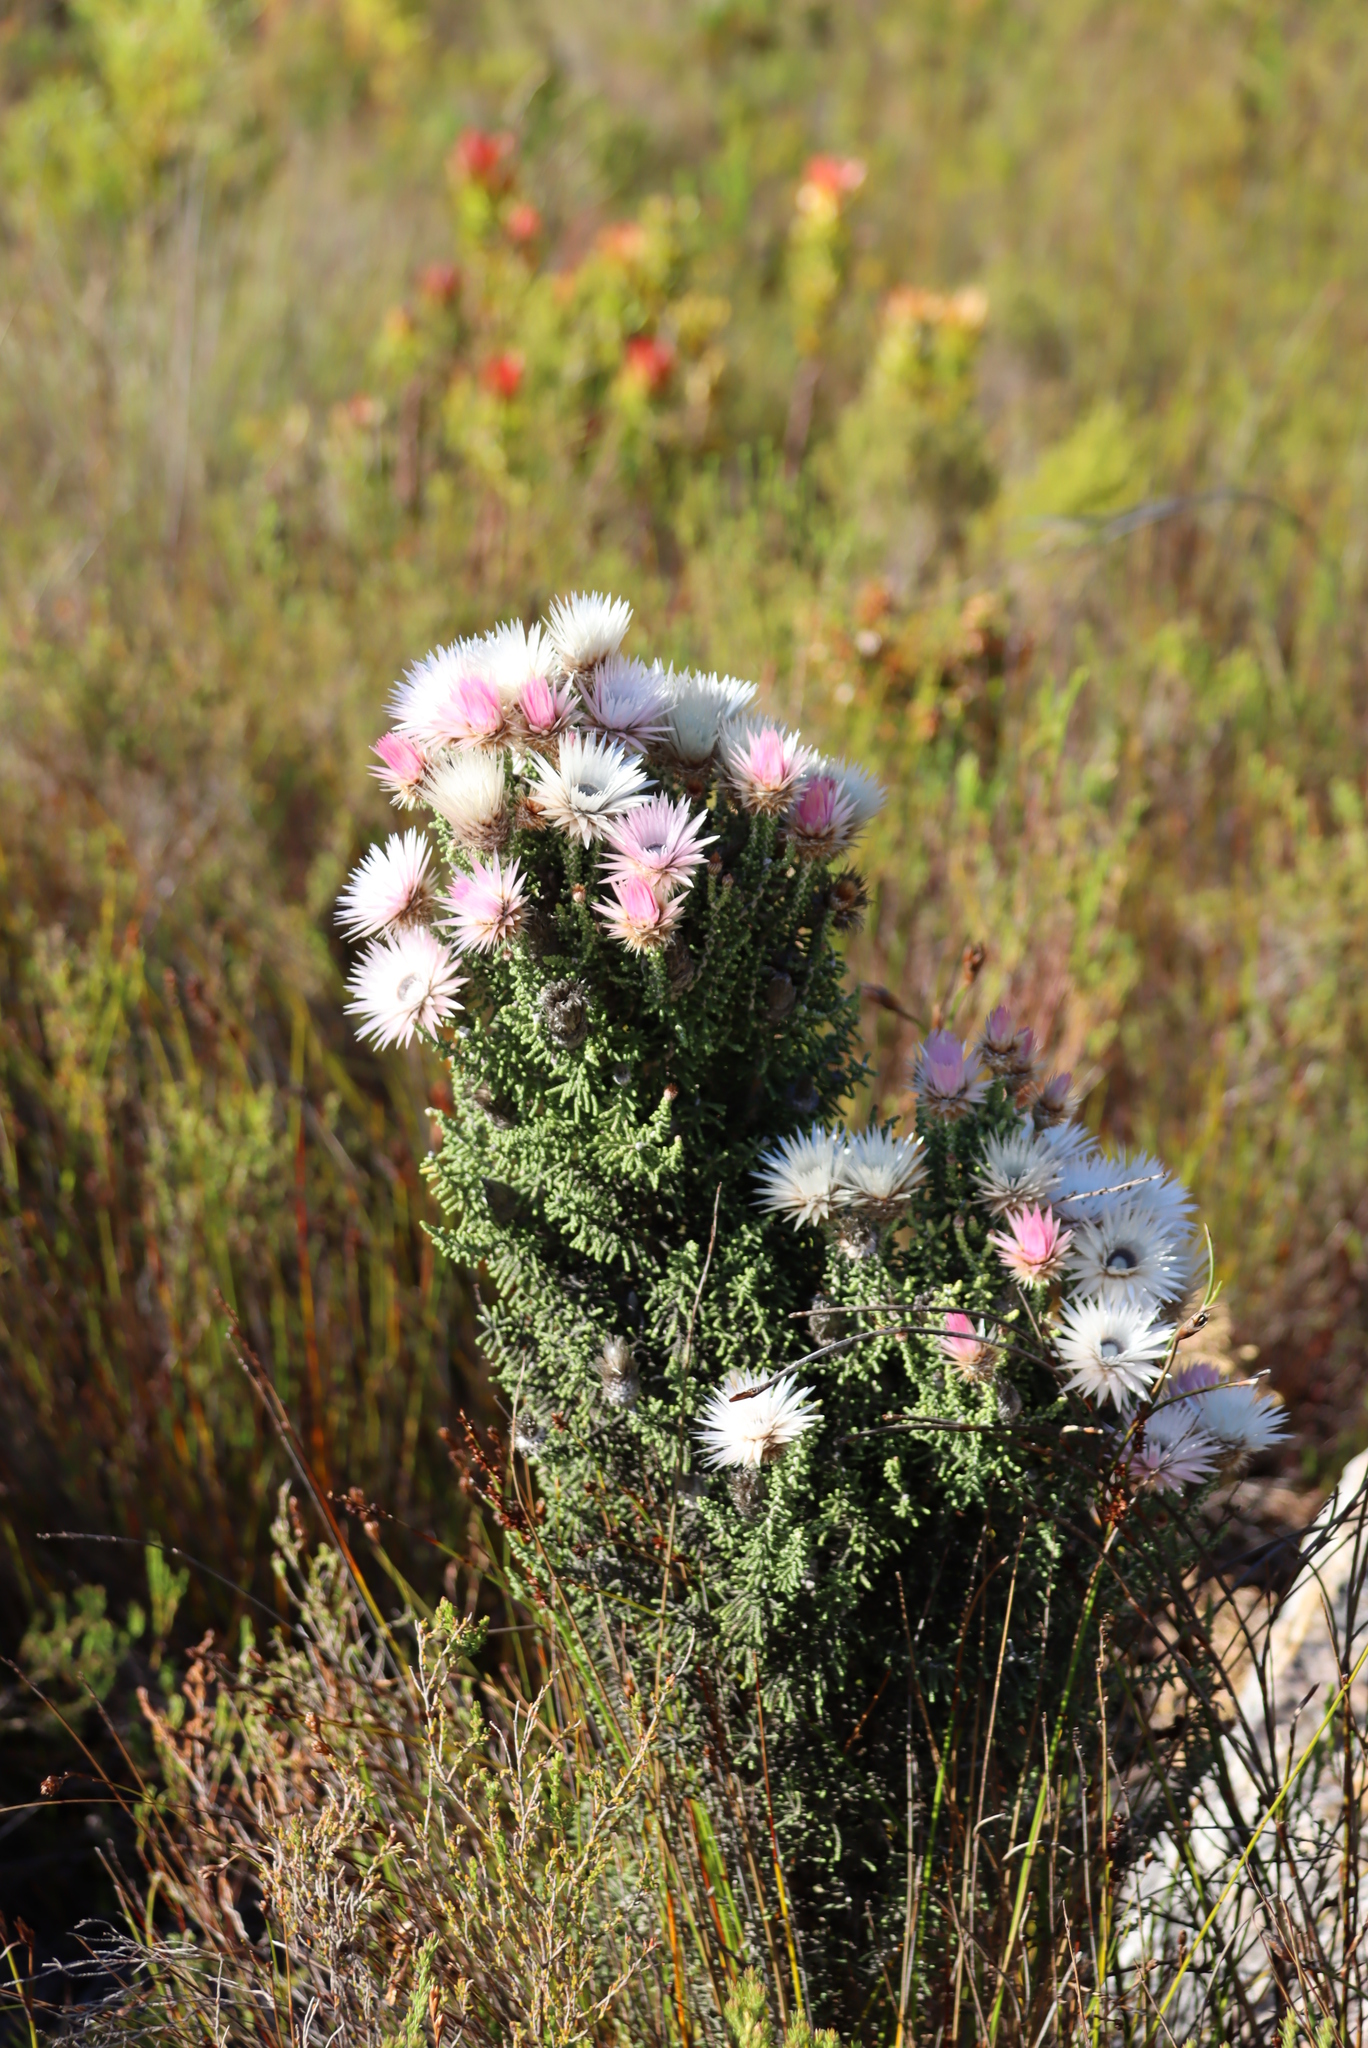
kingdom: Plantae
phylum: Tracheophyta
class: Magnoliopsida
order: Asterales
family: Asteraceae
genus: Phaenocoma
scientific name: Phaenocoma prolifera
